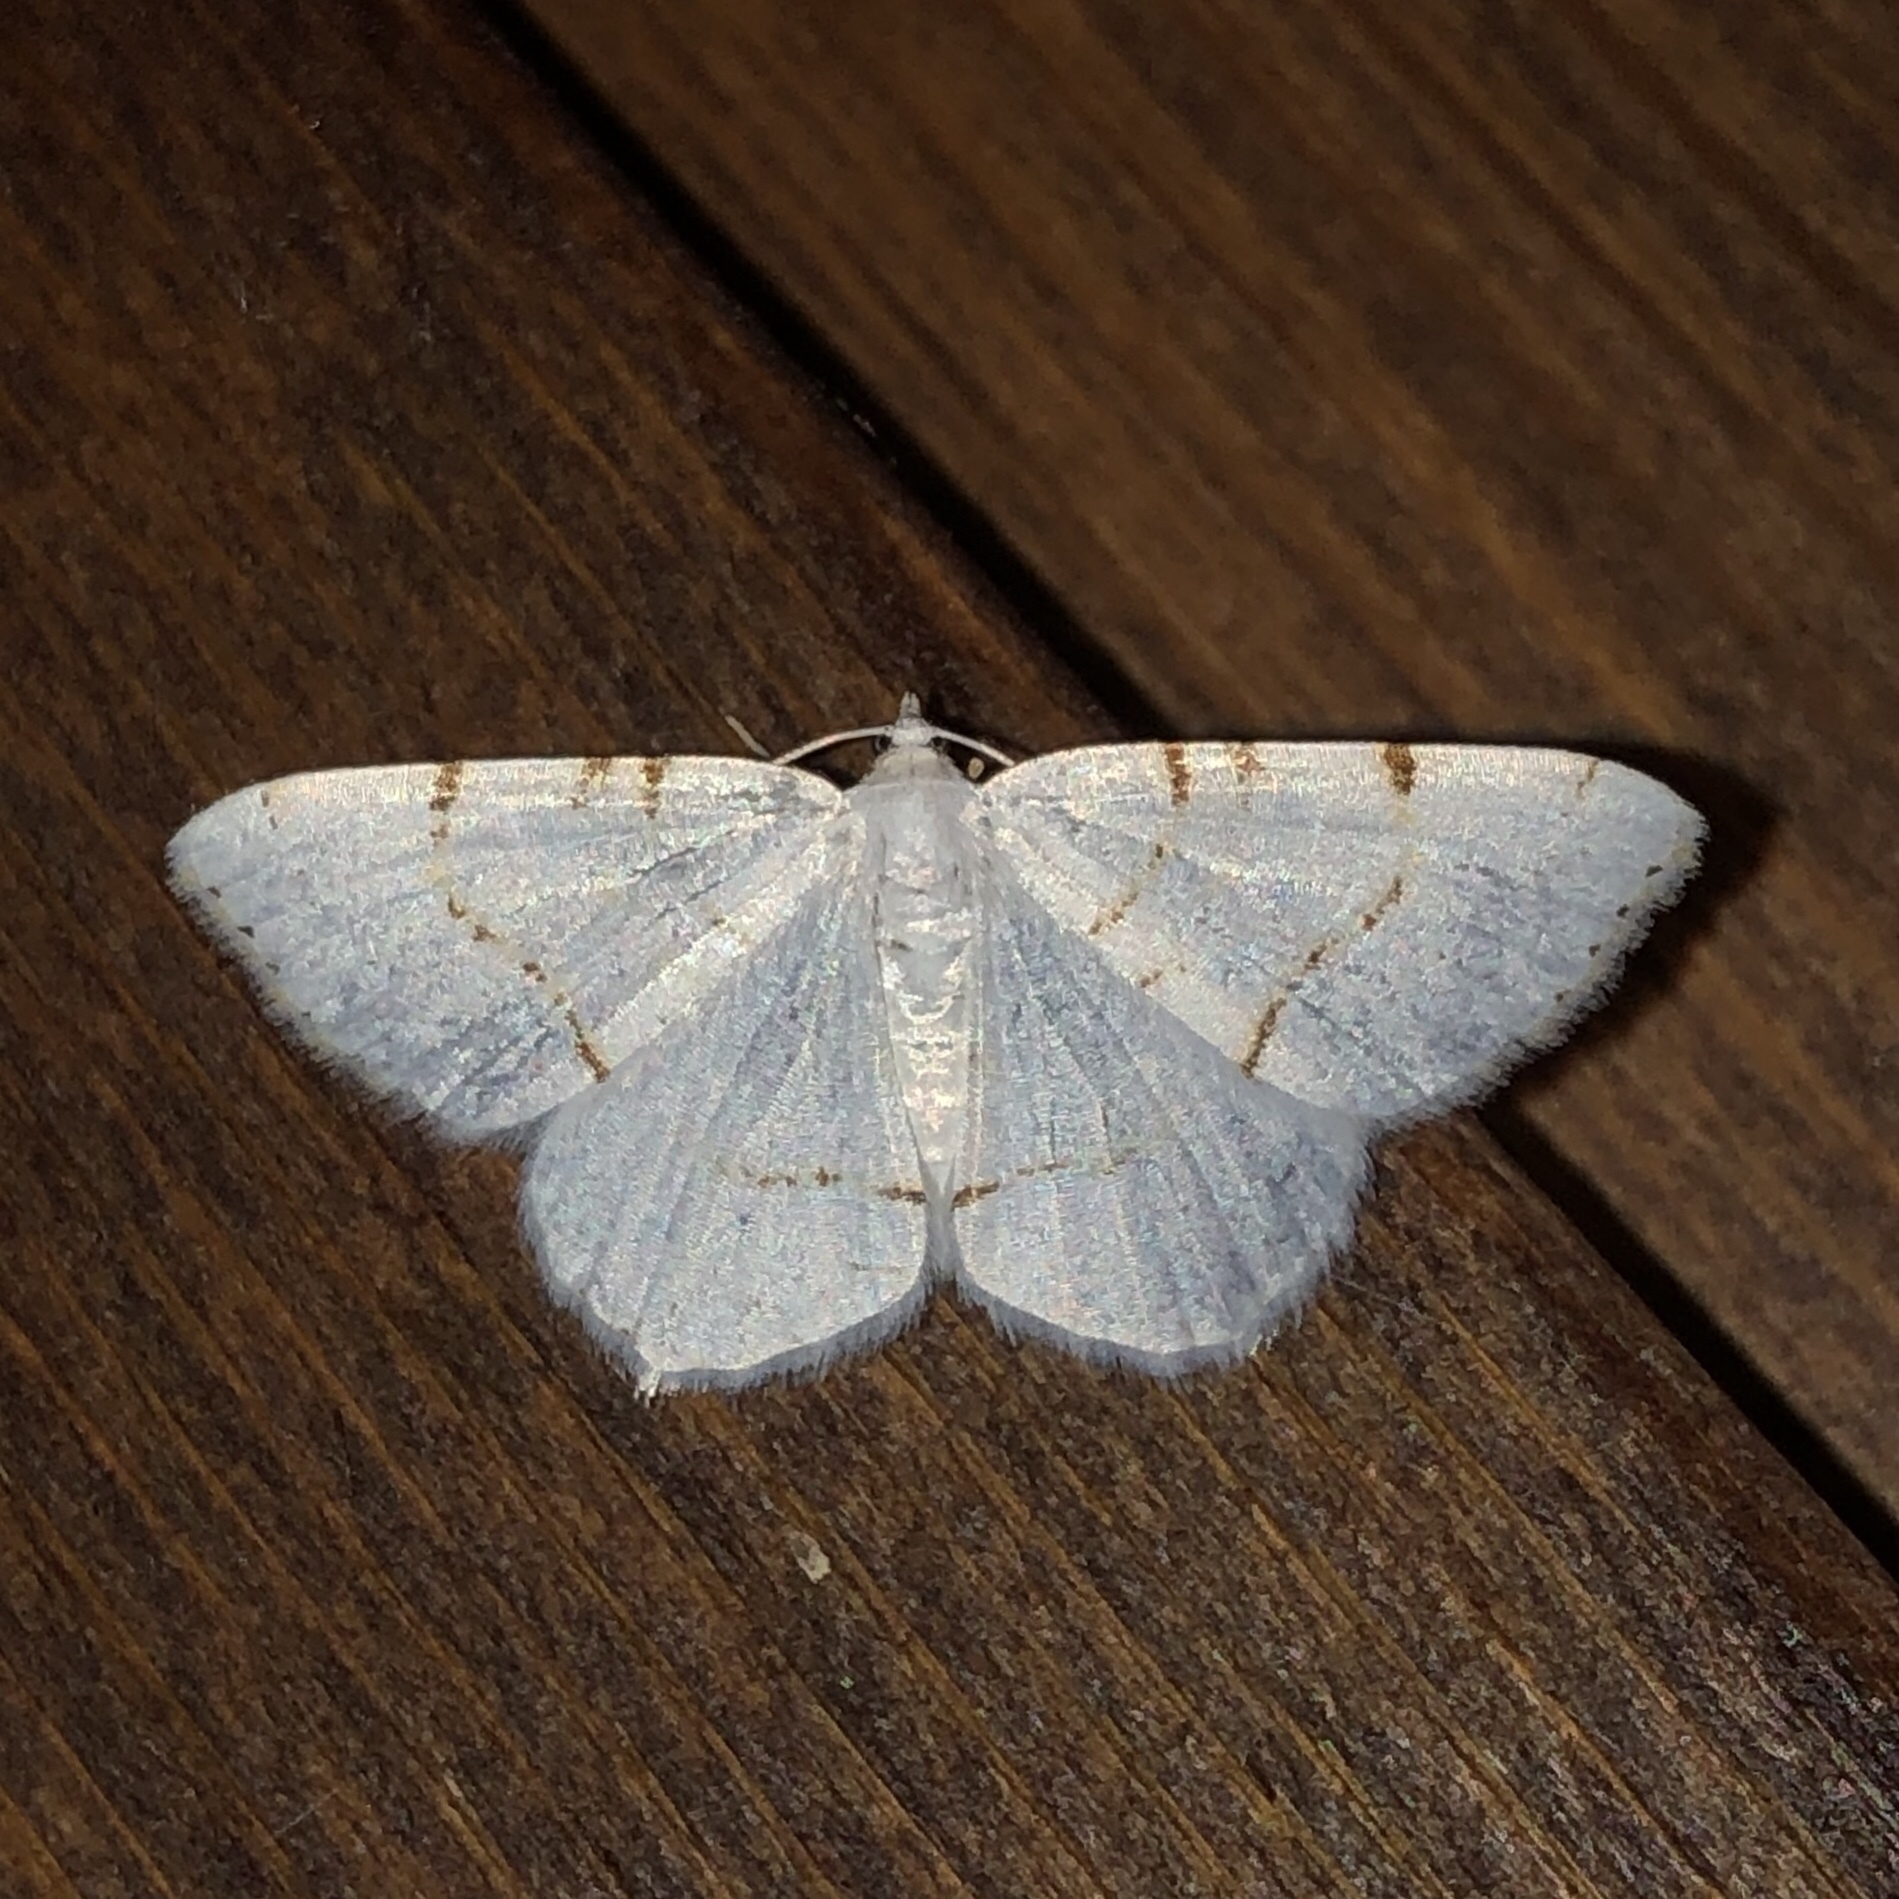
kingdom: Animalia
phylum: Arthropoda
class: Insecta
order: Lepidoptera
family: Geometridae
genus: Macaria
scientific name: Macaria pustularia
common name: Lesser maple spanworm moth
